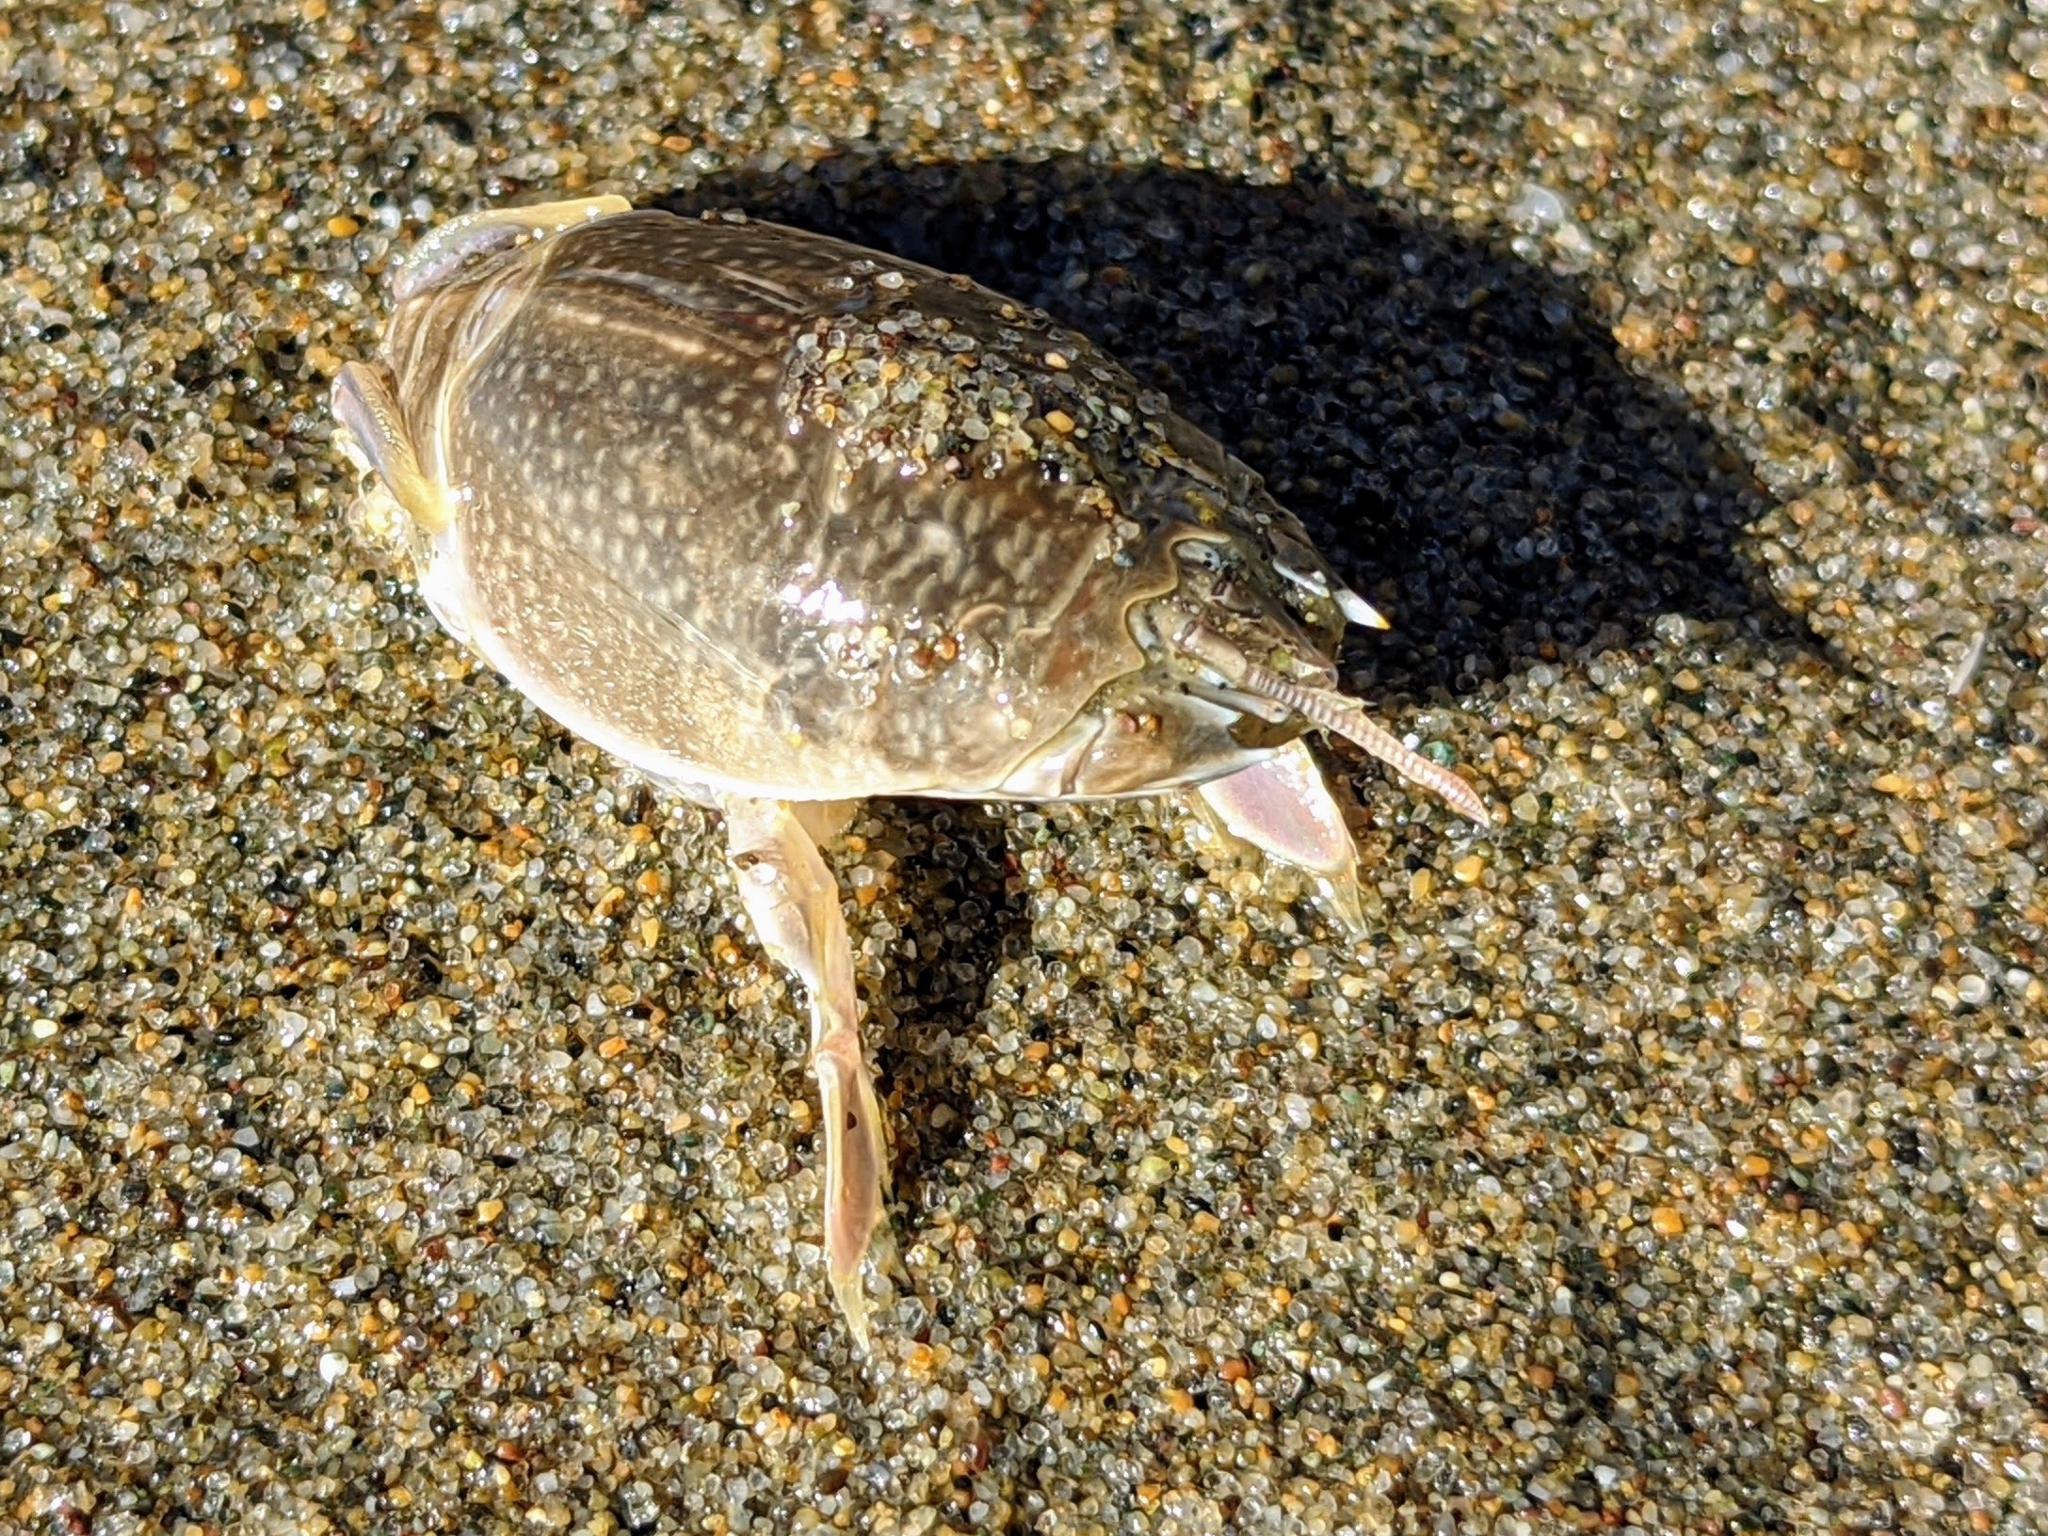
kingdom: Animalia
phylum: Arthropoda
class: Malacostraca
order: Decapoda
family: Hippidae
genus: Emerita
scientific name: Emerita analoga
